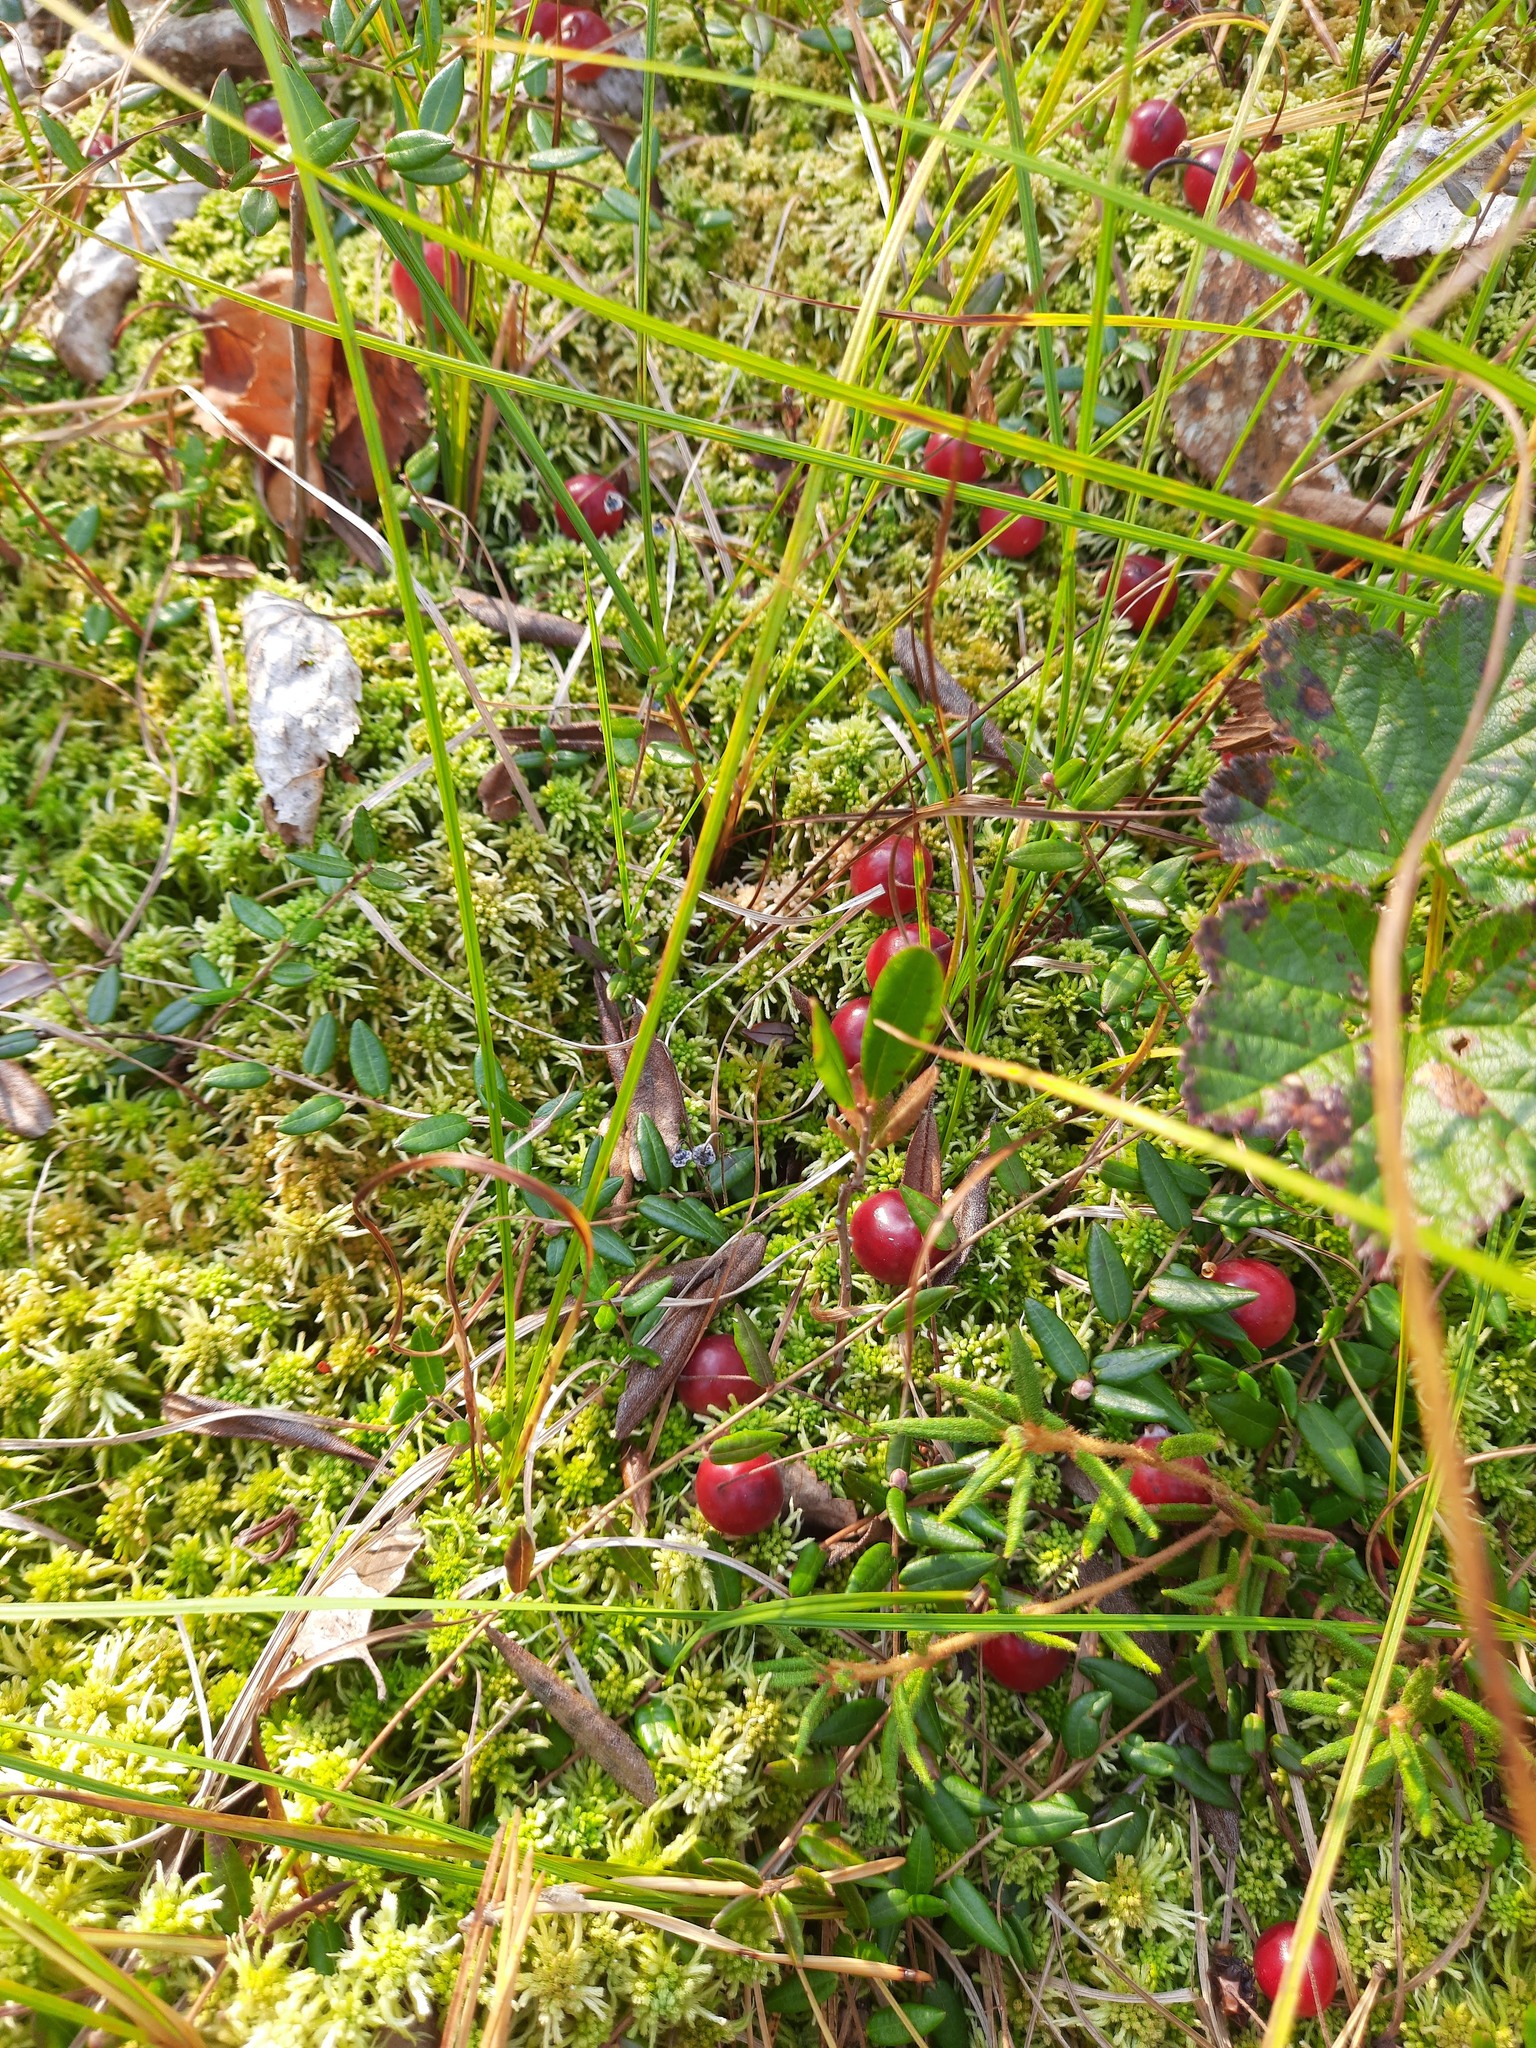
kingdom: Plantae
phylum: Tracheophyta
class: Magnoliopsida
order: Ericales
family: Ericaceae
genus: Vaccinium
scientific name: Vaccinium oxycoccos
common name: Cranberry
